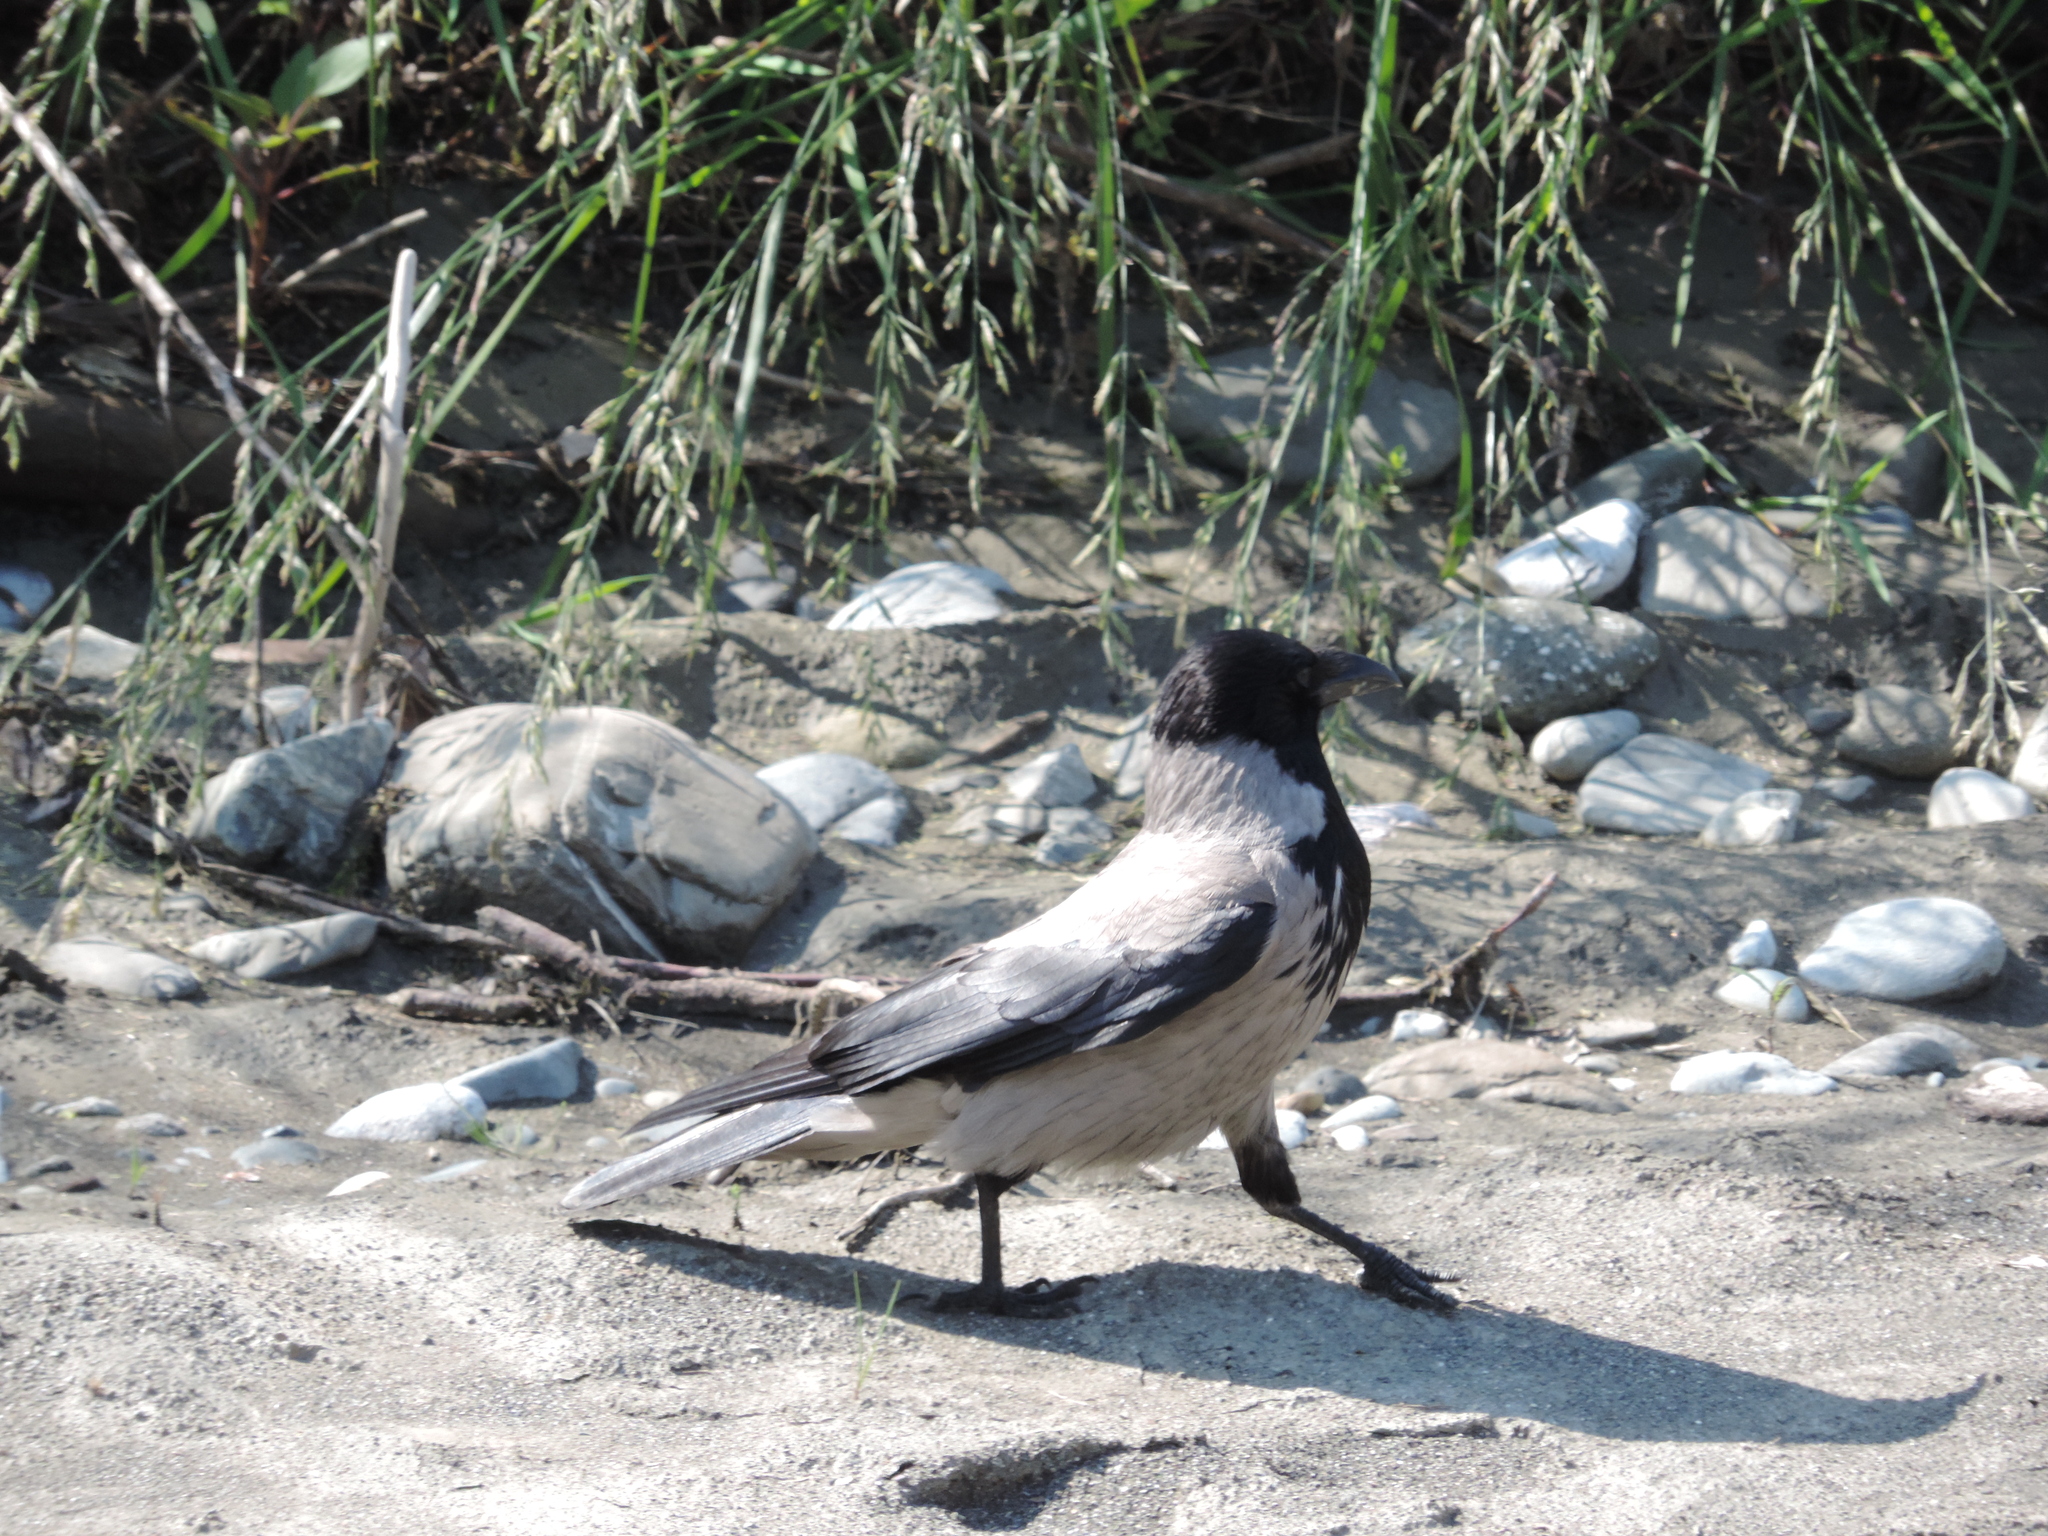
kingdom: Animalia
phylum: Chordata
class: Aves
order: Passeriformes
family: Corvidae
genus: Corvus
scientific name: Corvus cornix
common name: Hooded crow
